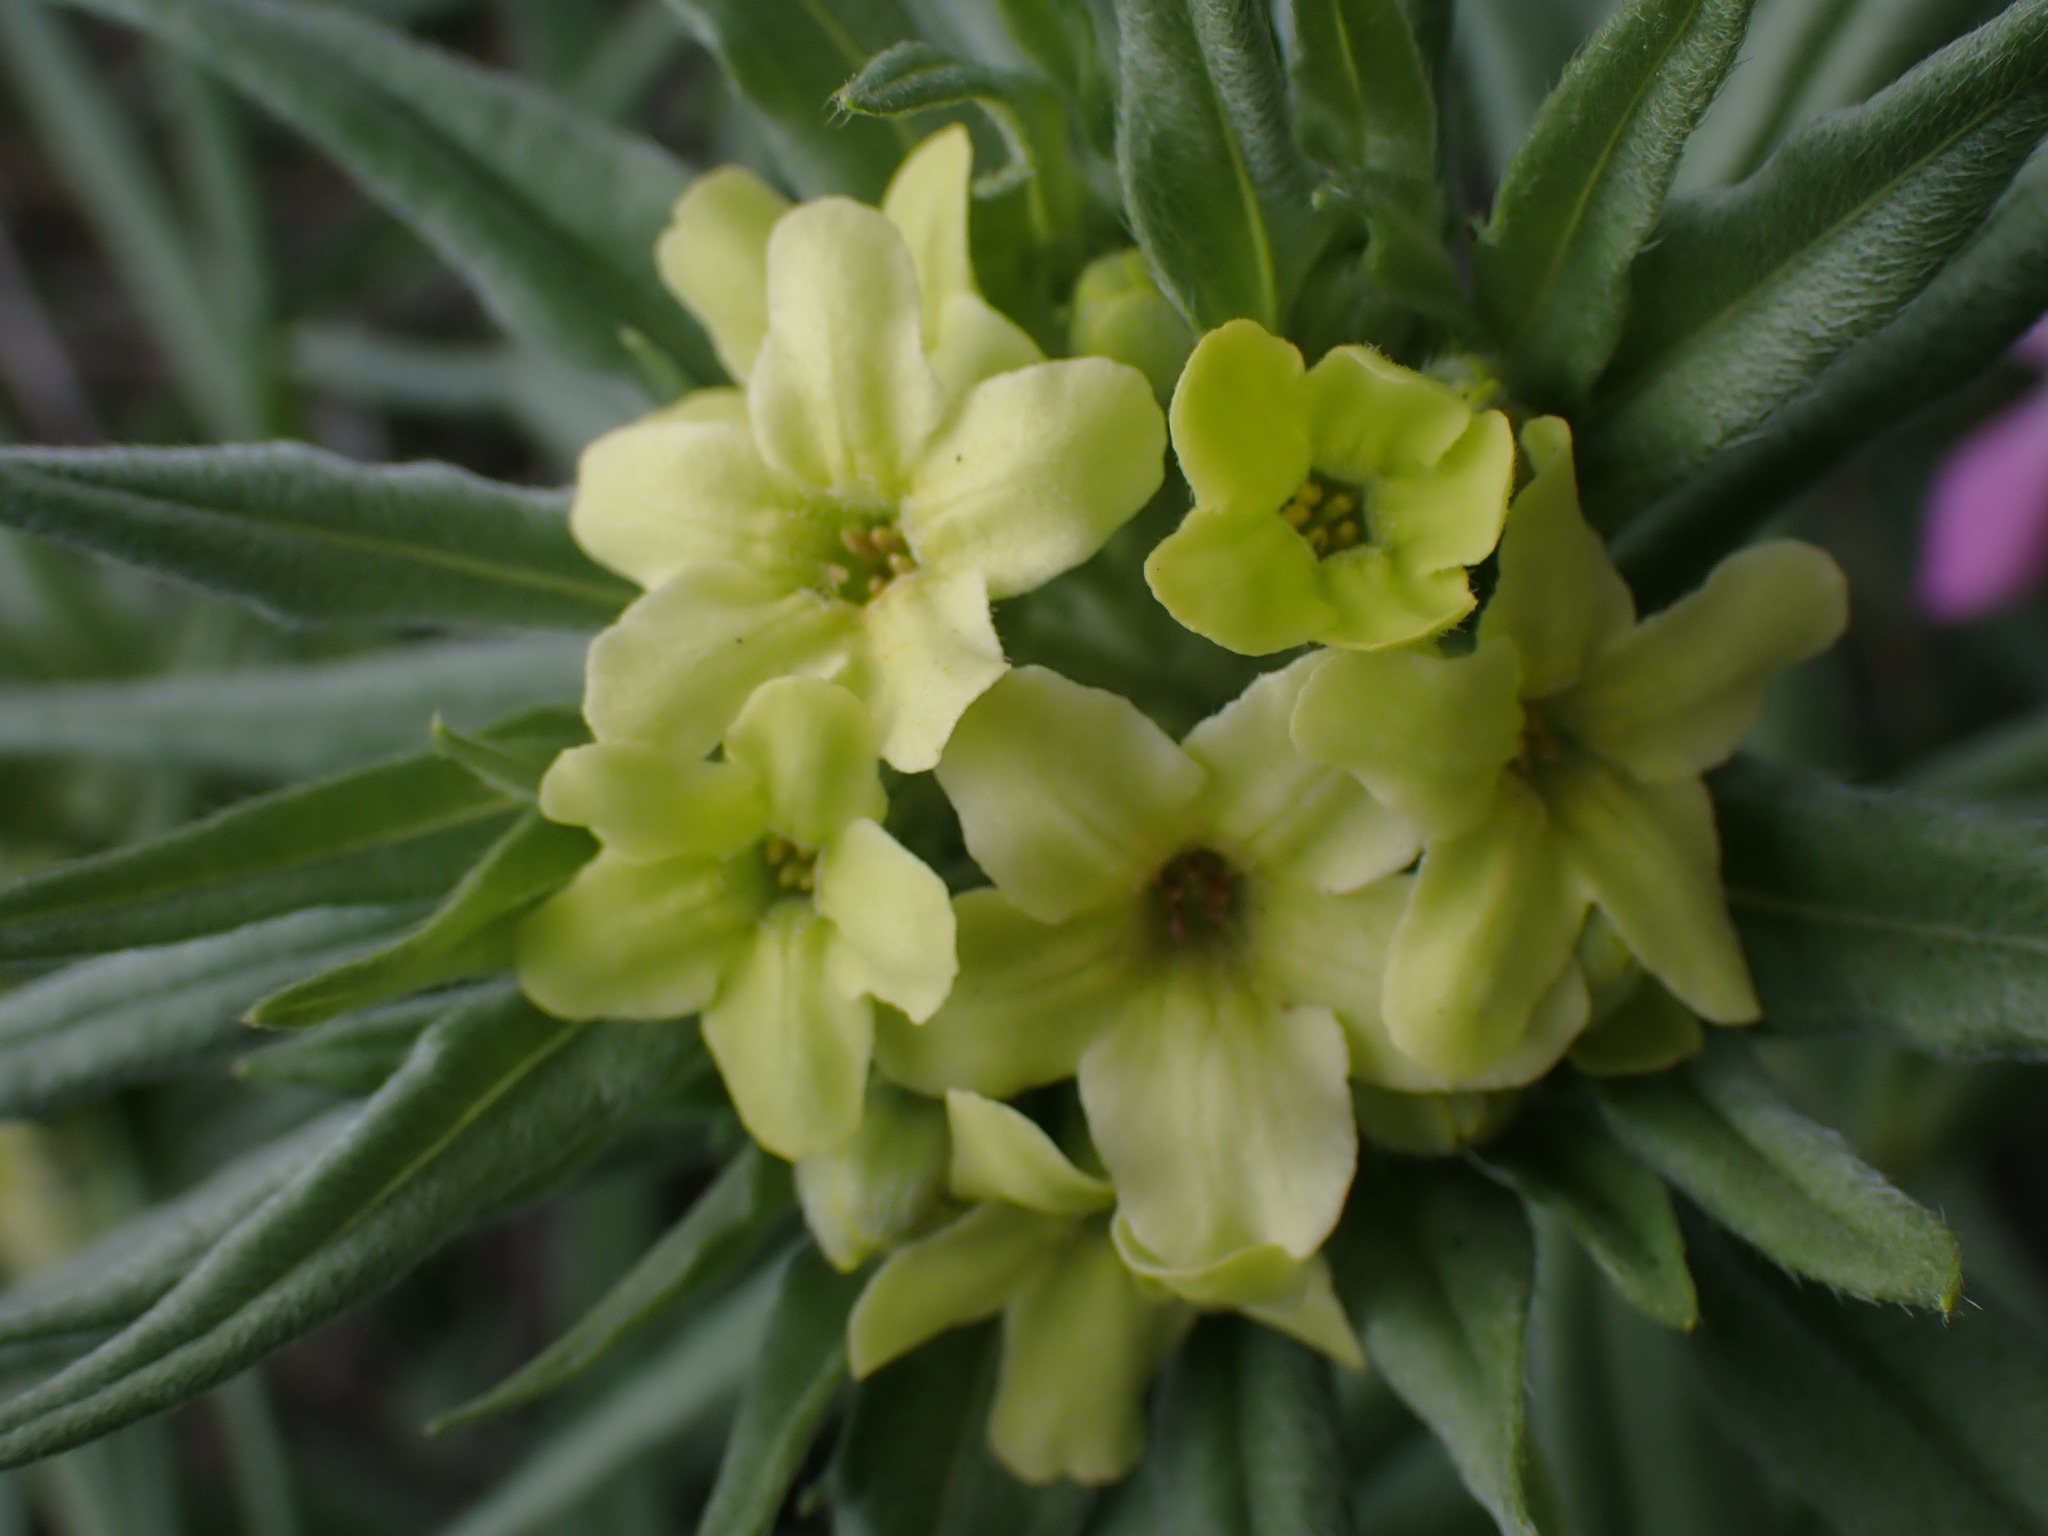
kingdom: Plantae
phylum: Tracheophyta
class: Magnoliopsida
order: Boraginales
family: Boraginaceae
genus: Lithospermum
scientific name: Lithospermum ruderale
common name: Western gromwell
